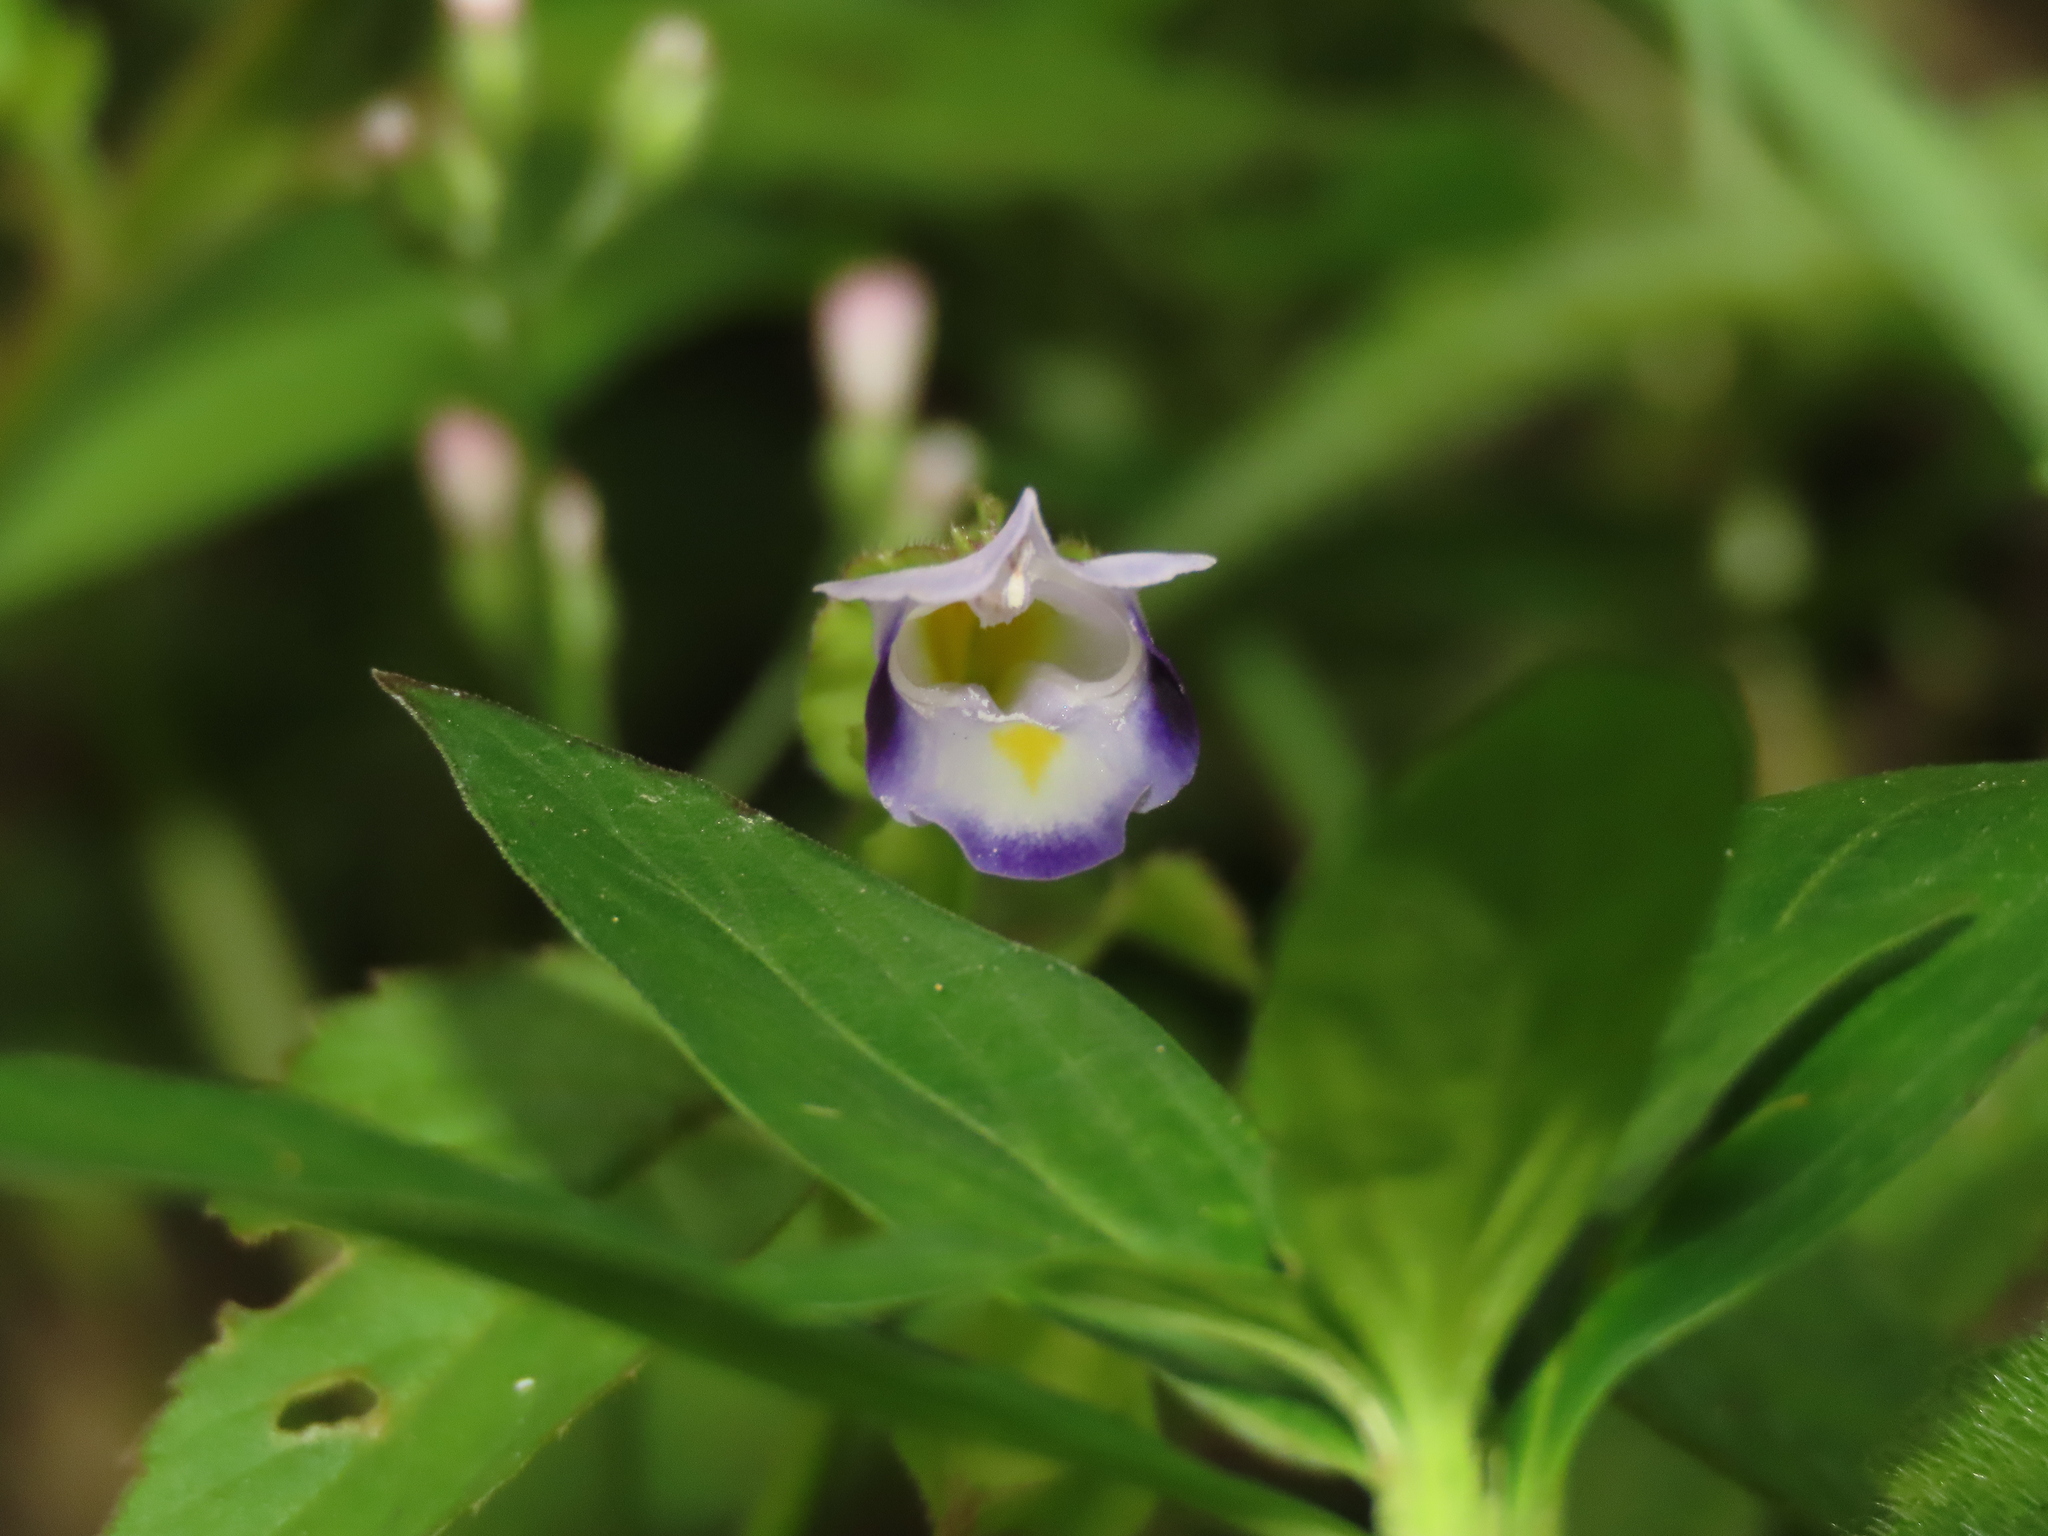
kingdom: Plantae
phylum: Tracheophyta
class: Magnoliopsida
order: Lamiales
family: Linderniaceae
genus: Torenia
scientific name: Torenia violacea
